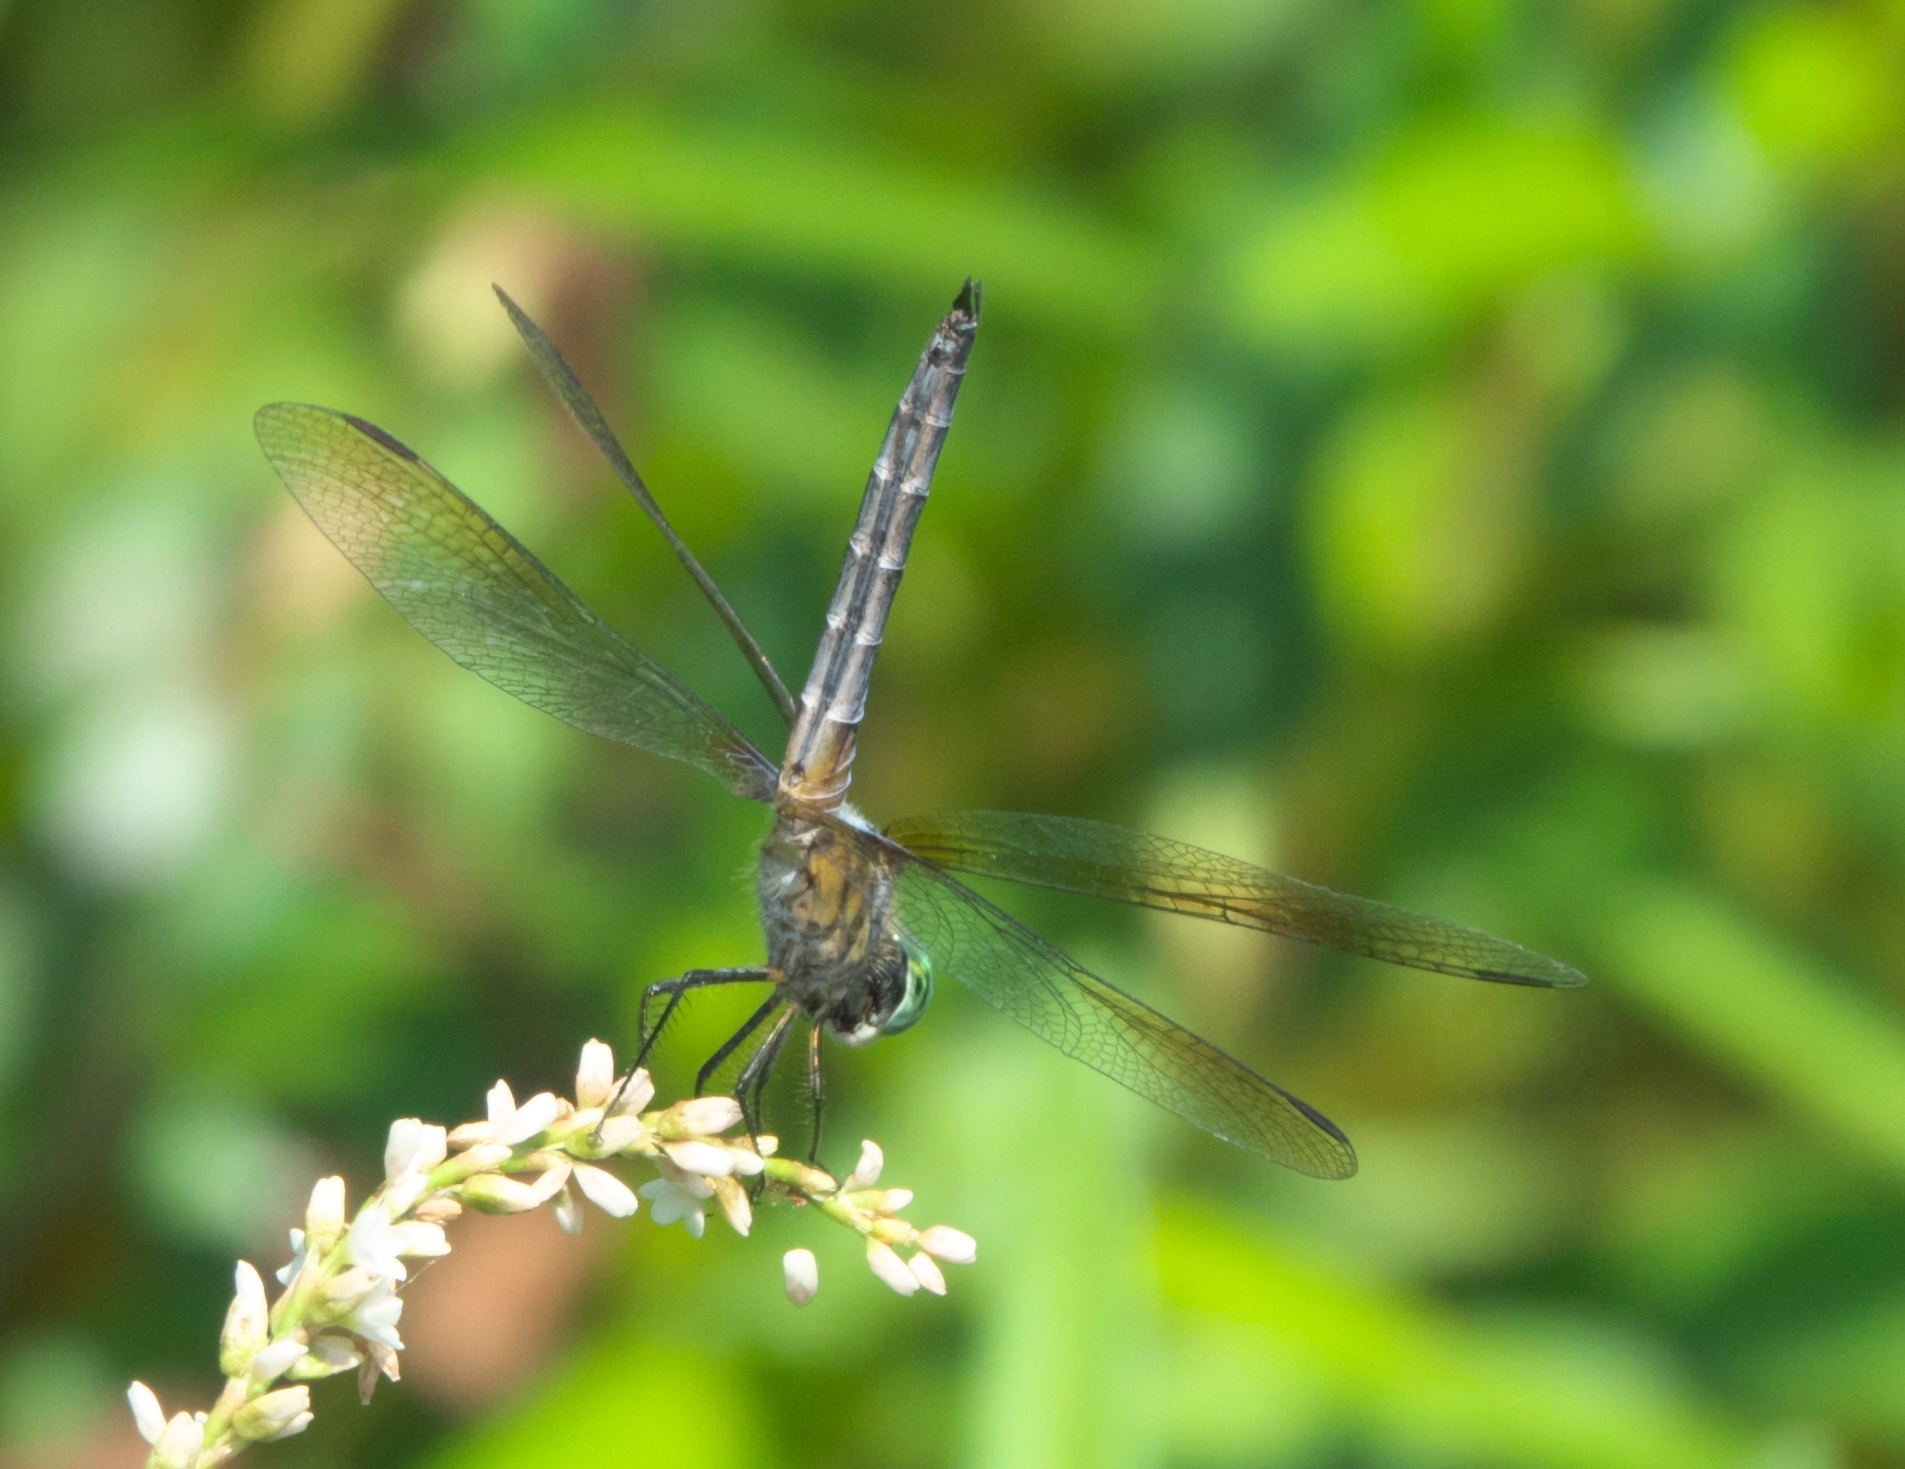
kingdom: Animalia
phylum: Arthropoda
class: Insecta
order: Odonata
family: Libellulidae
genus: Pachydiplax
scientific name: Pachydiplax longipennis
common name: Blue dasher
